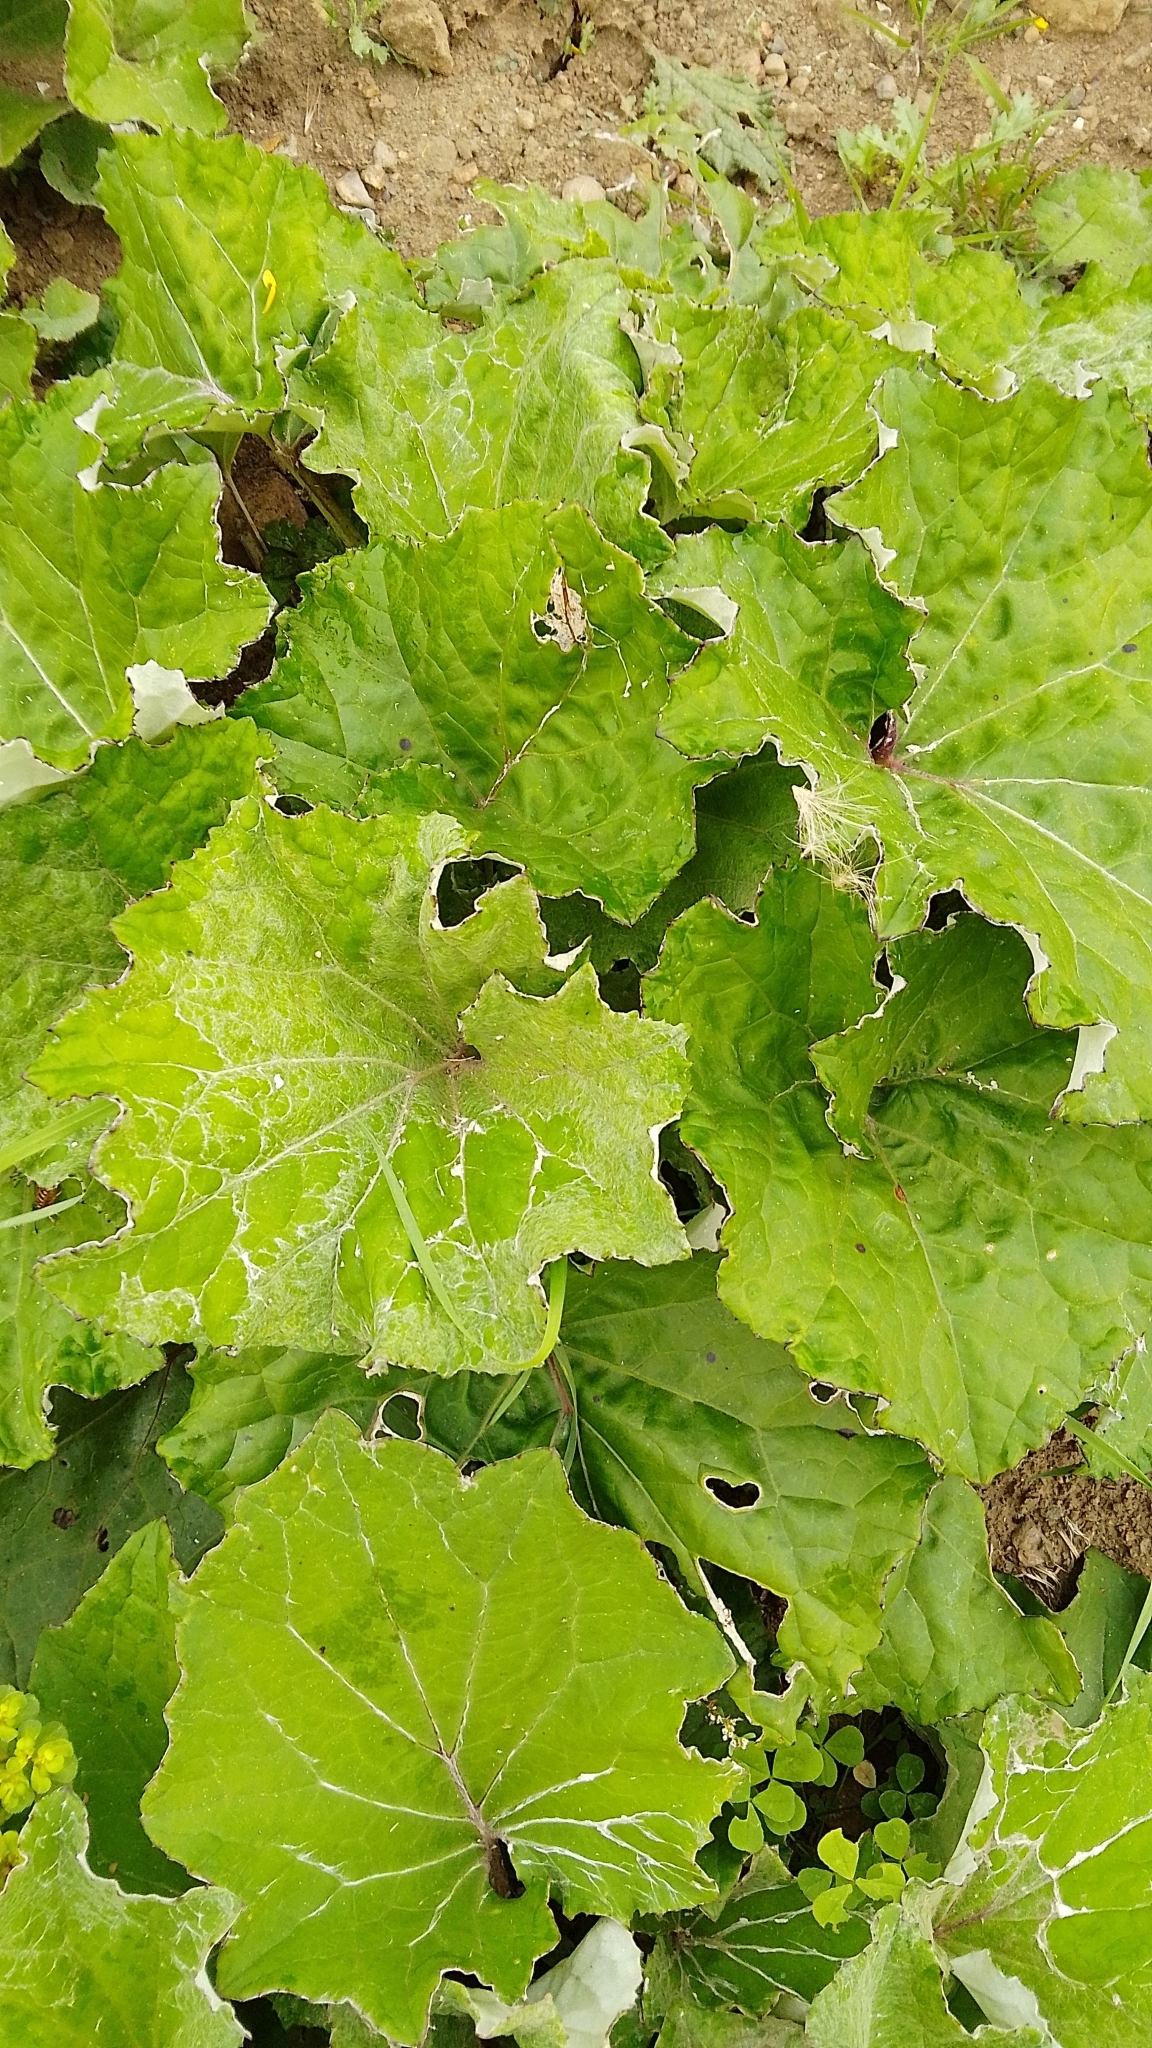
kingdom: Plantae
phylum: Tracheophyta
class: Magnoliopsida
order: Asterales
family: Asteraceae
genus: Tussilago
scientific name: Tussilago farfara
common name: Coltsfoot
